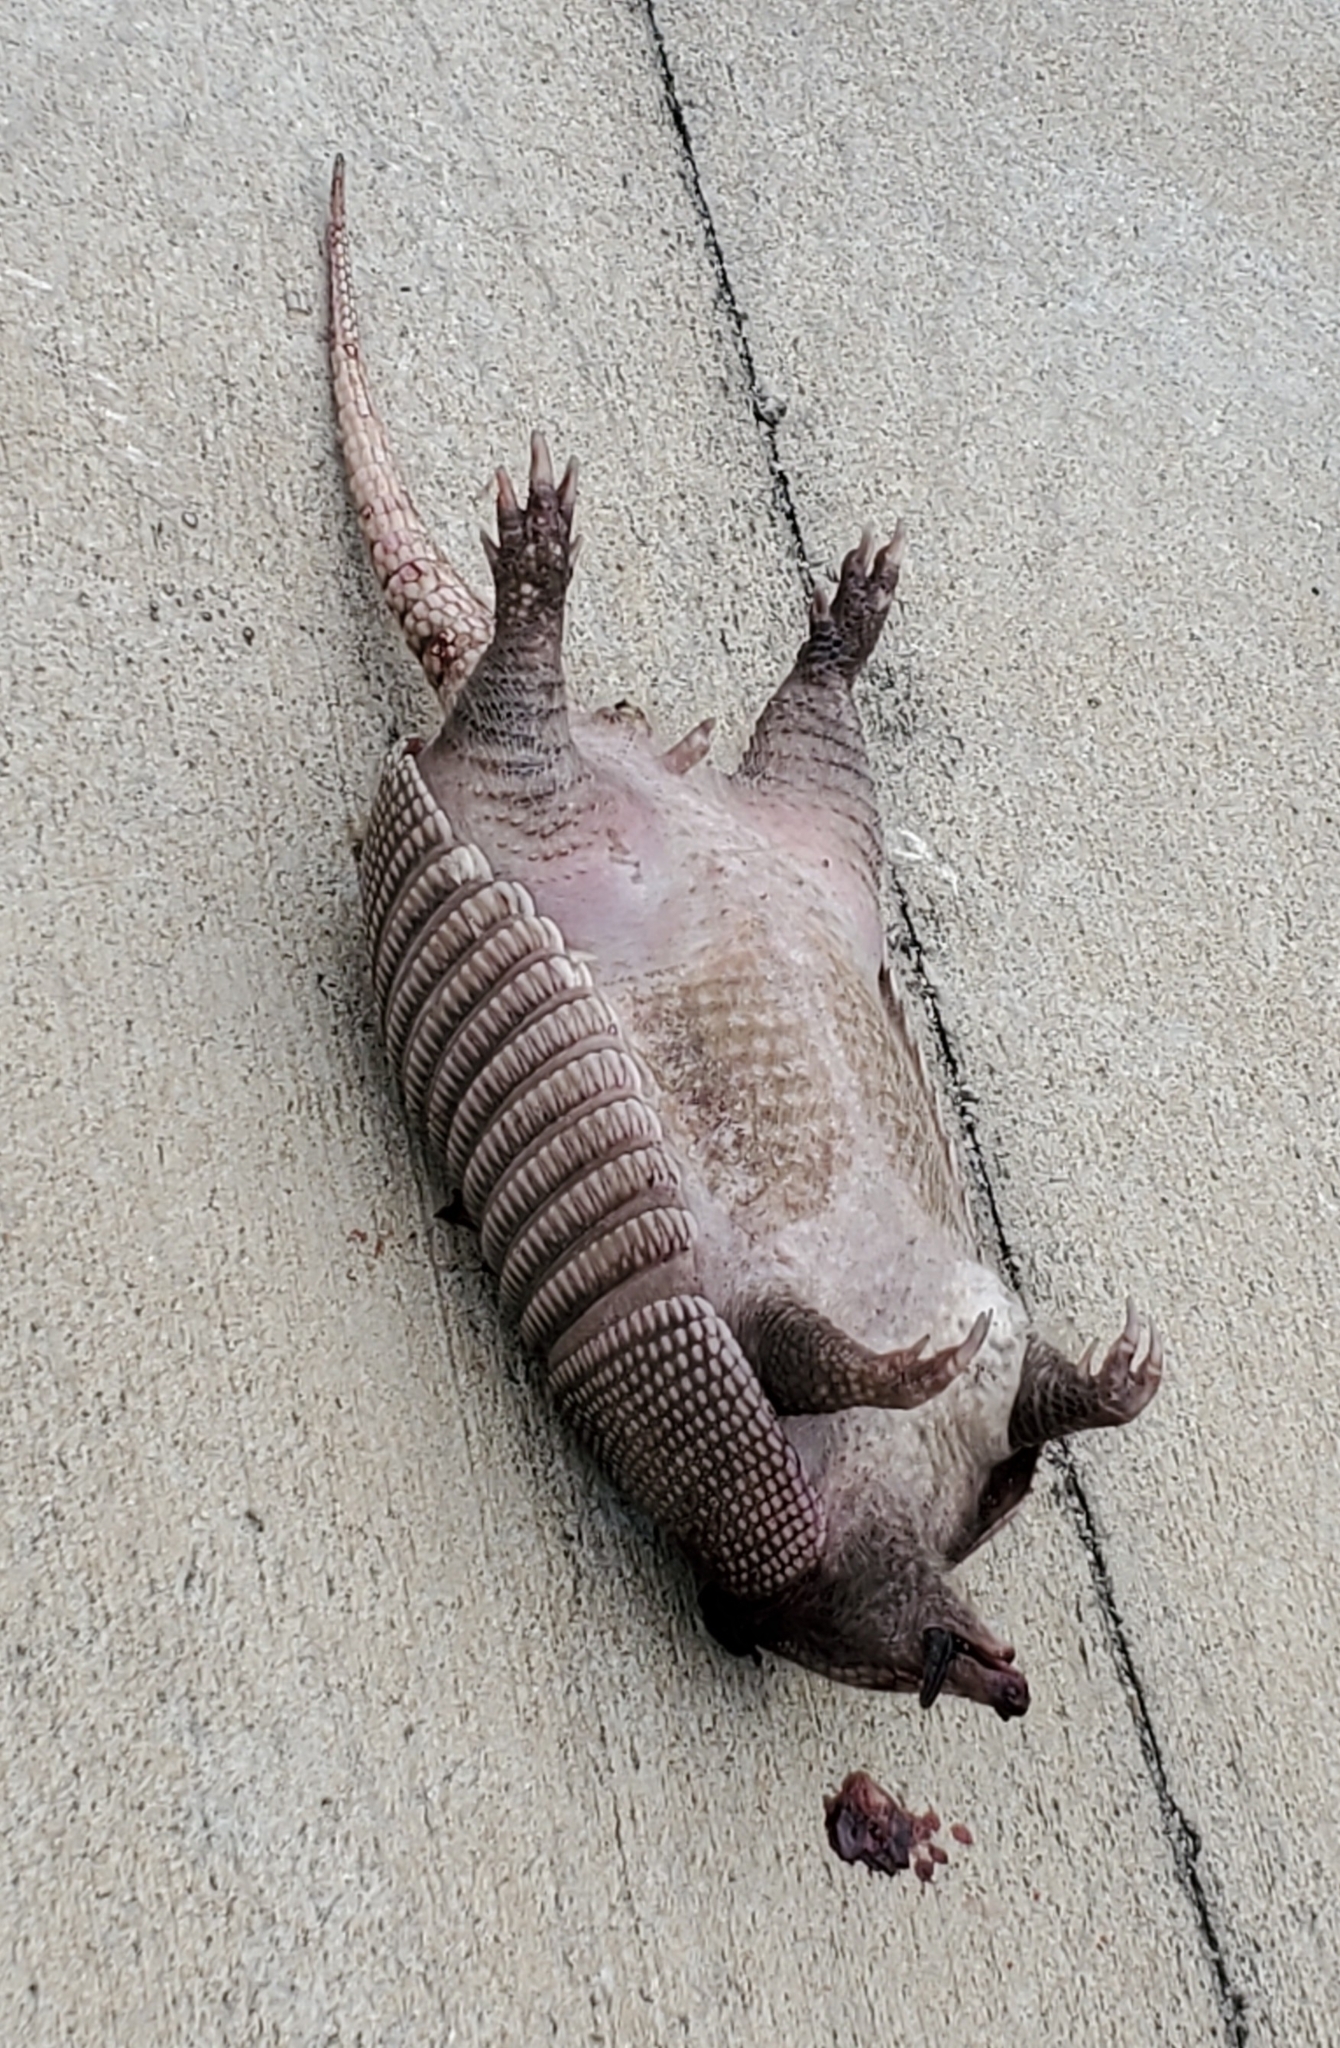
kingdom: Animalia
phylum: Chordata
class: Mammalia
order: Cingulata
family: Dasypodidae
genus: Dasypus
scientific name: Dasypus novemcinctus
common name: Nine-banded armadillo
